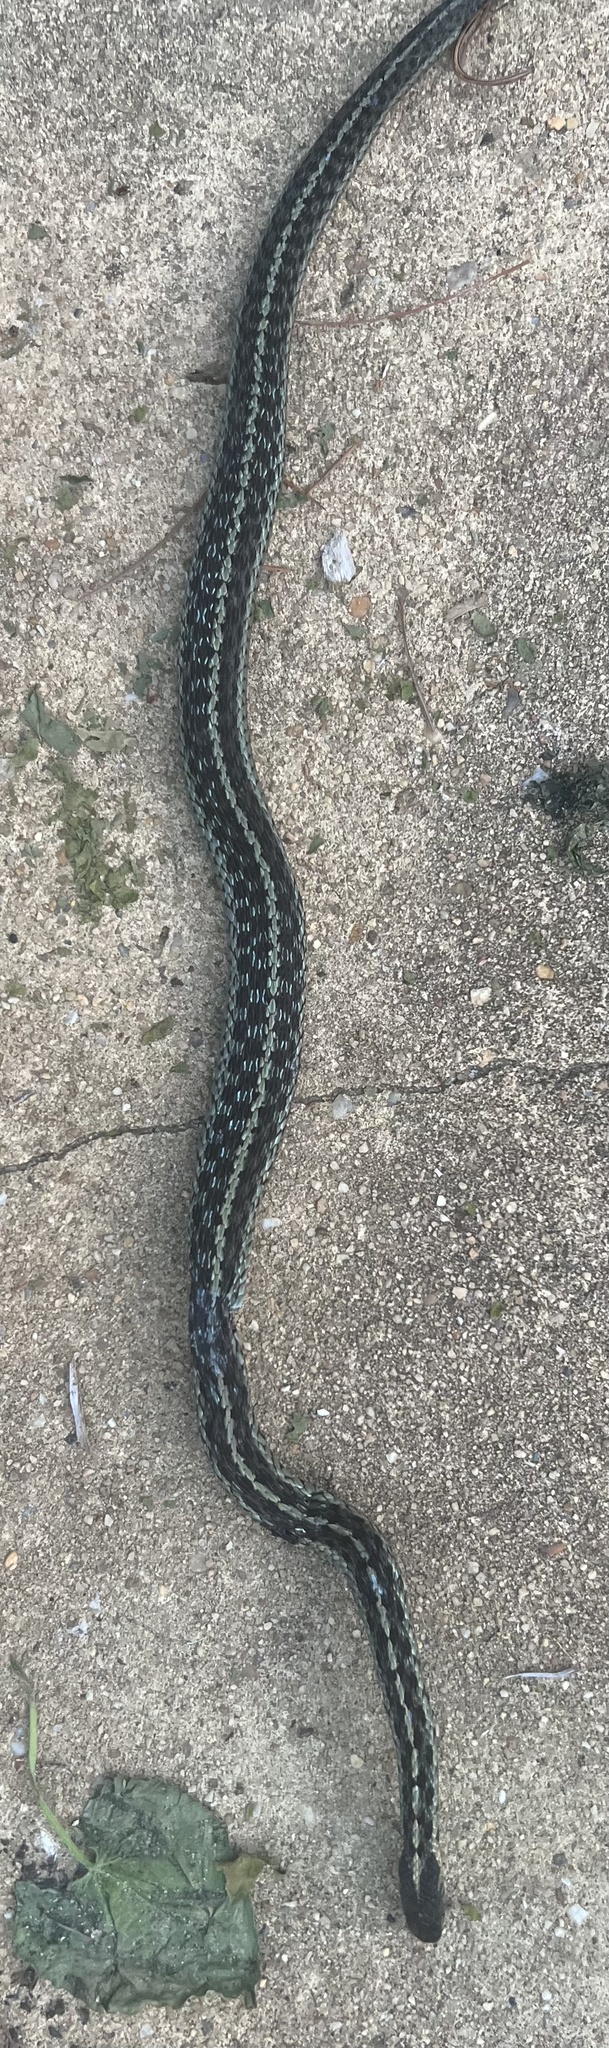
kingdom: Animalia
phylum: Chordata
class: Squamata
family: Colubridae
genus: Thamnophis
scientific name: Thamnophis sirtalis
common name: Common garter snake
